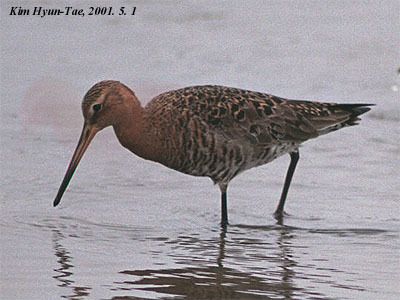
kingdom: Animalia
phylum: Chordata
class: Aves
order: Charadriiformes
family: Scolopacidae
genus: Limosa
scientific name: Limosa limosa
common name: Black-tailed godwit
